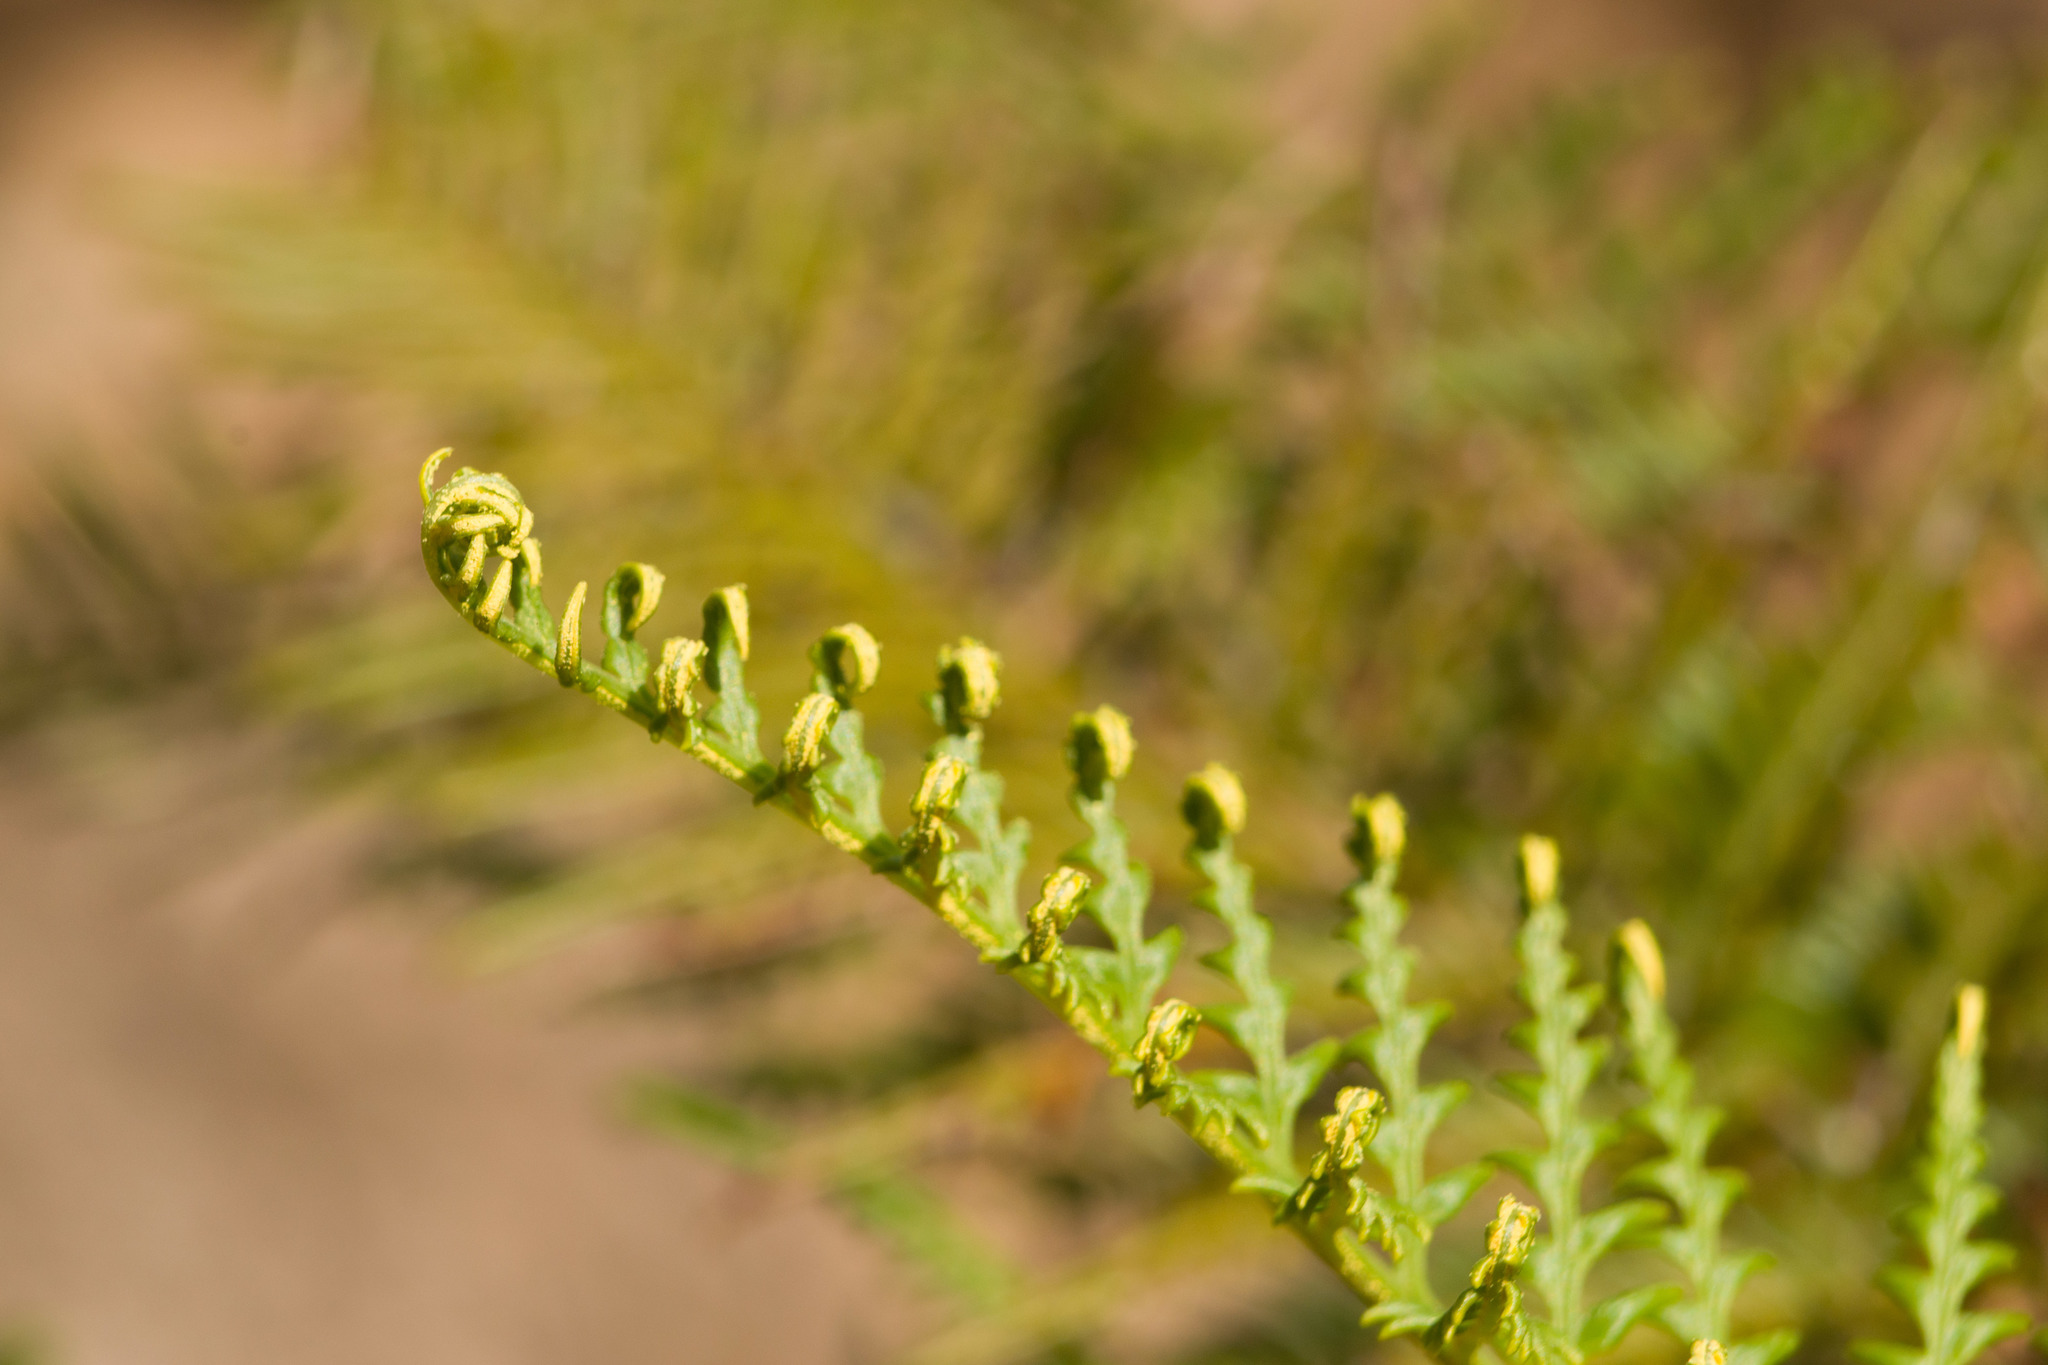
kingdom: Plantae
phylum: Tracheophyta
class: Polypodiopsida
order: Polypodiales
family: Pteridaceae
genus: Pityrogramma
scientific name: Pityrogramma austroamericana
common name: Leatherleaf goldback fern
